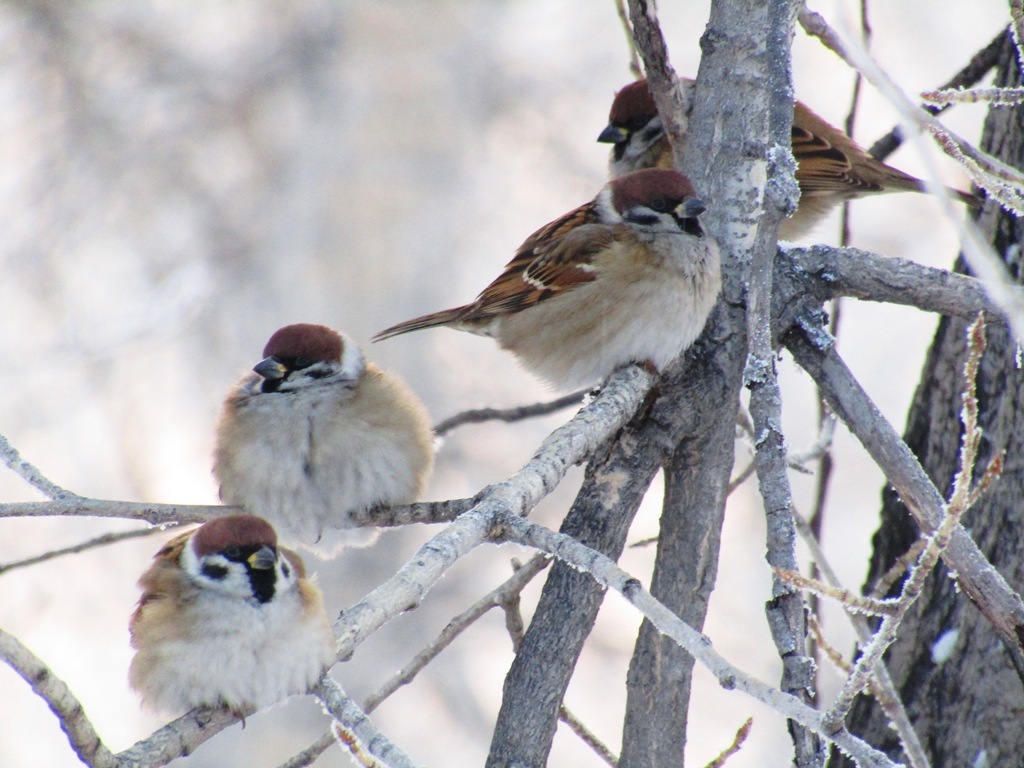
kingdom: Animalia
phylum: Chordata
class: Aves
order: Passeriformes
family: Passeridae
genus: Passer
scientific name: Passer montanus
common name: Eurasian tree sparrow
